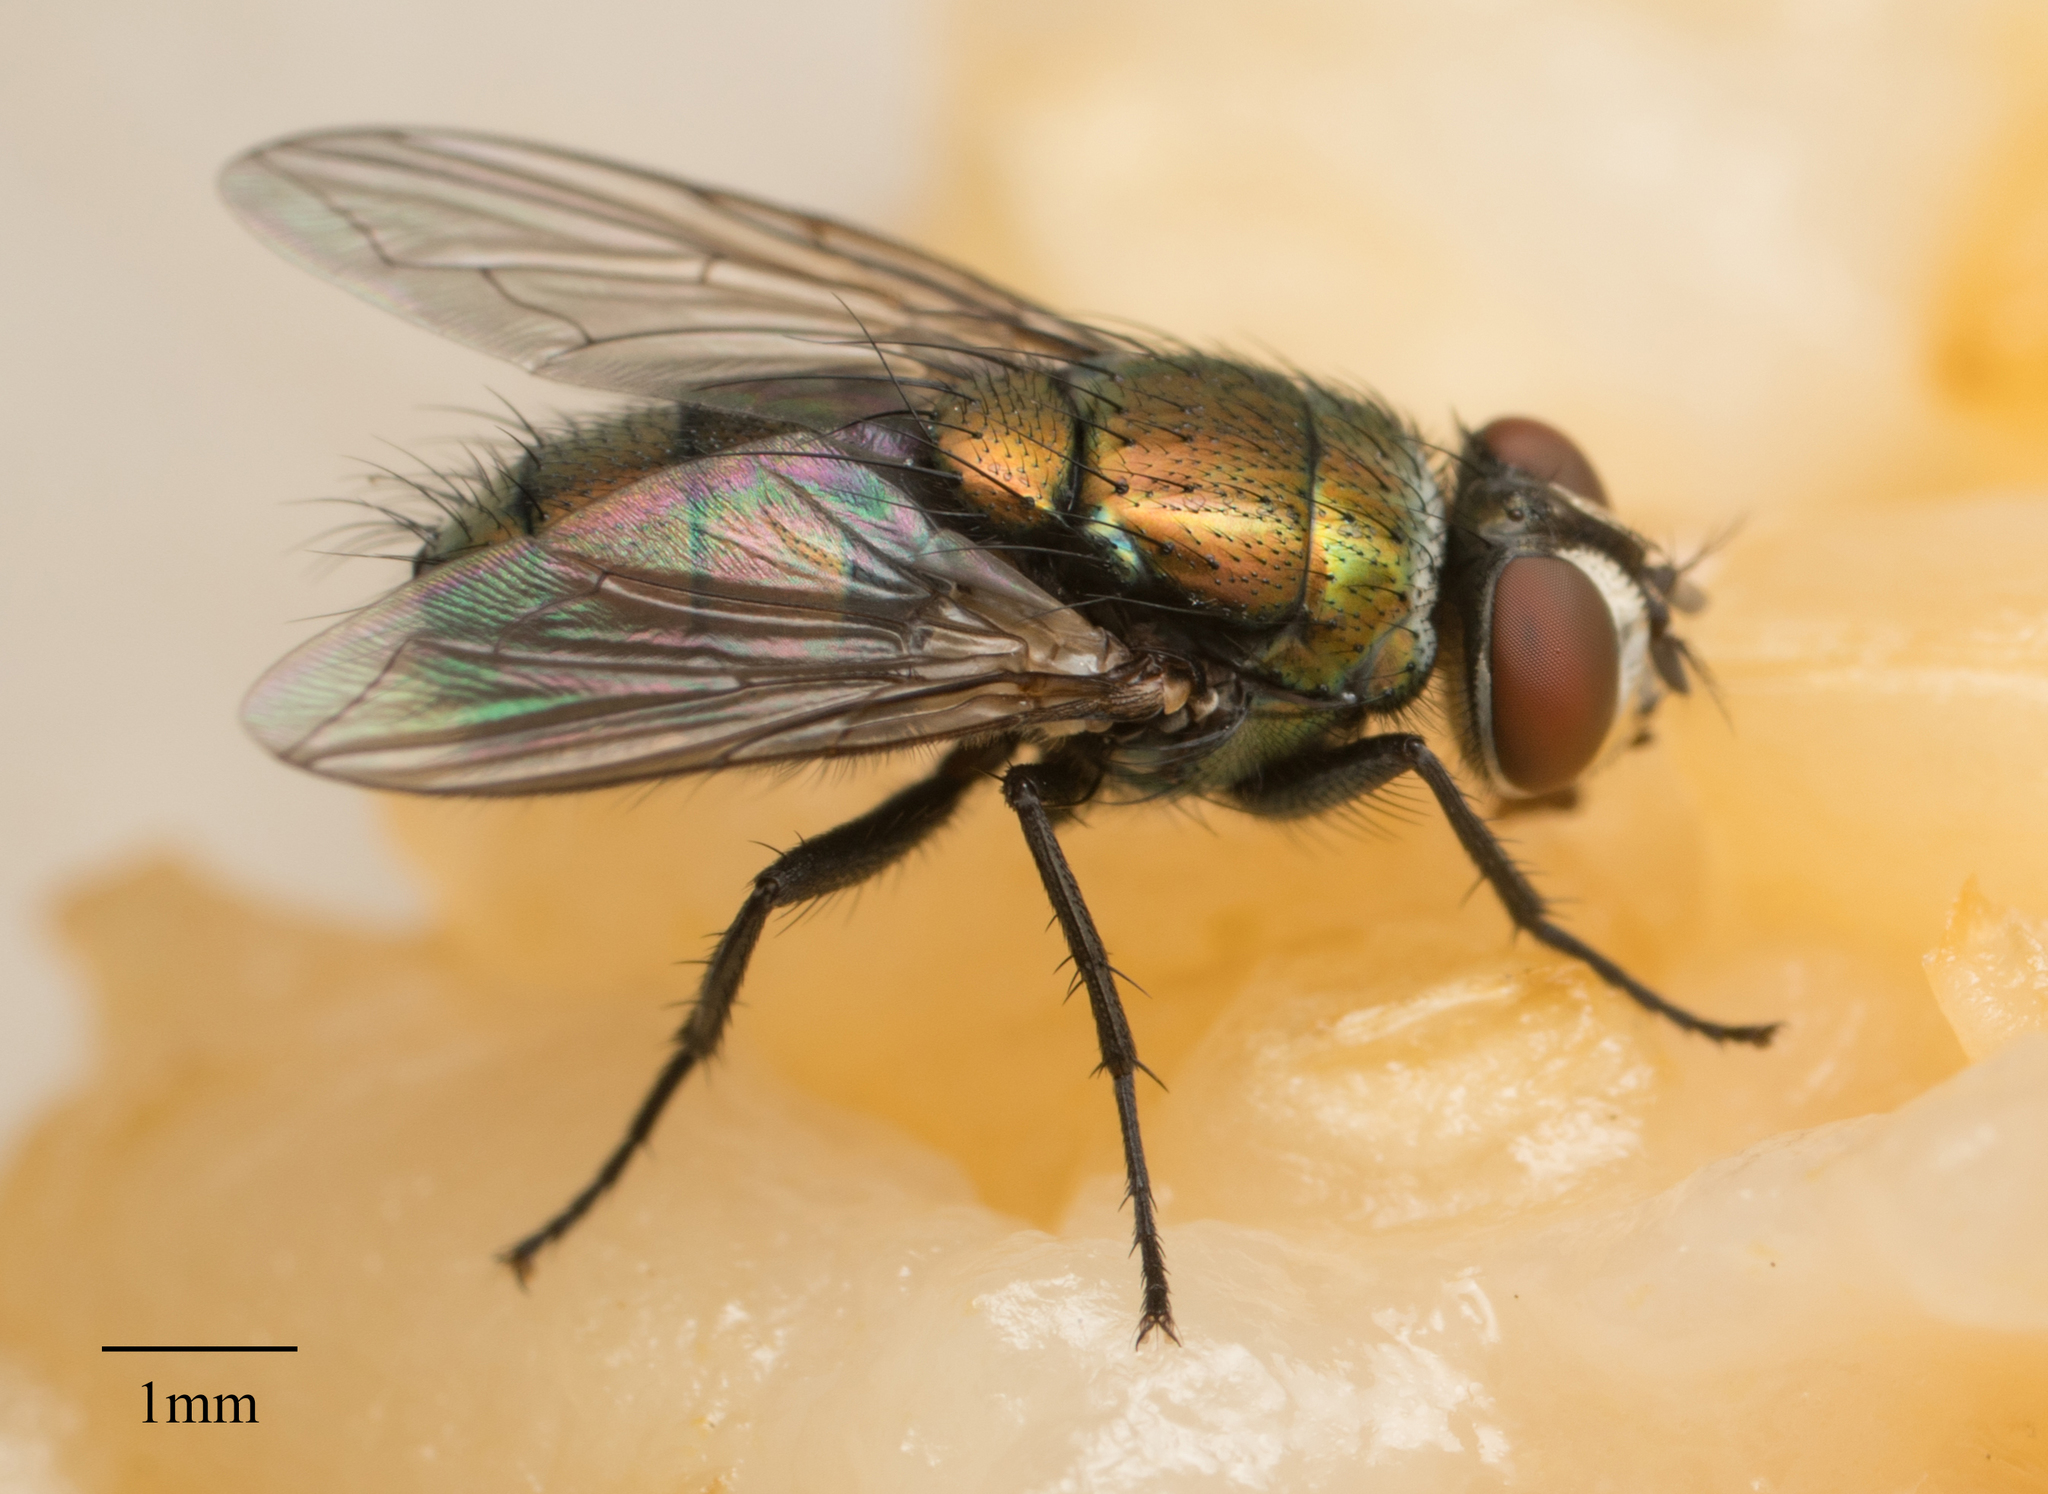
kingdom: Animalia
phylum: Arthropoda
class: Insecta
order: Diptera
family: Calliphoridae
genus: Lucilia
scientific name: Lucilia cuprina
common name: Sheep blow fly
